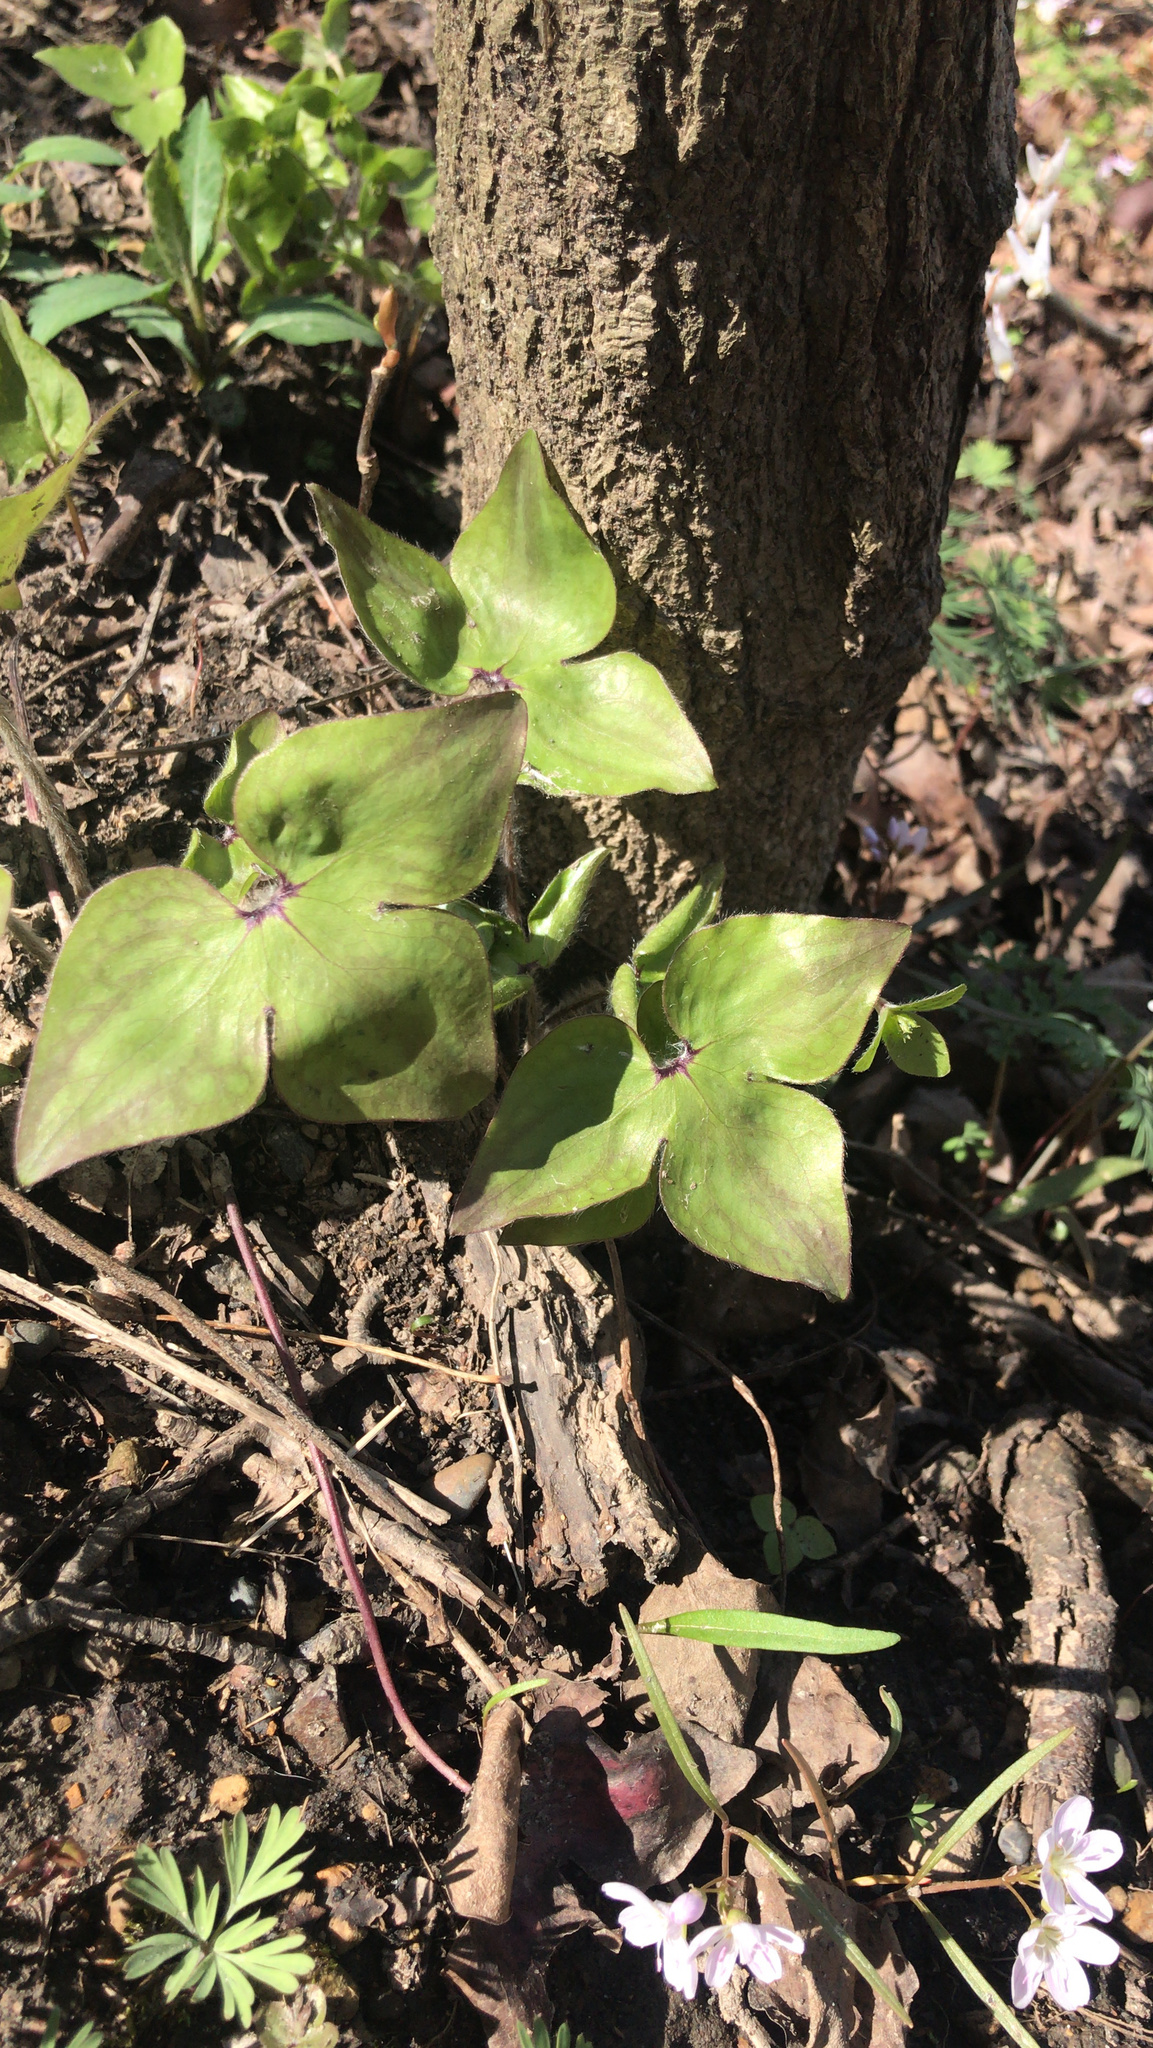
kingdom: Plantae
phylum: Tracheophyta
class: Magnoliopsida
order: Ranunculales
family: Ranunculaceae
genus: Hepatica
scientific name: Hepatica acutiloba
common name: Sharp-lobed hepatica
